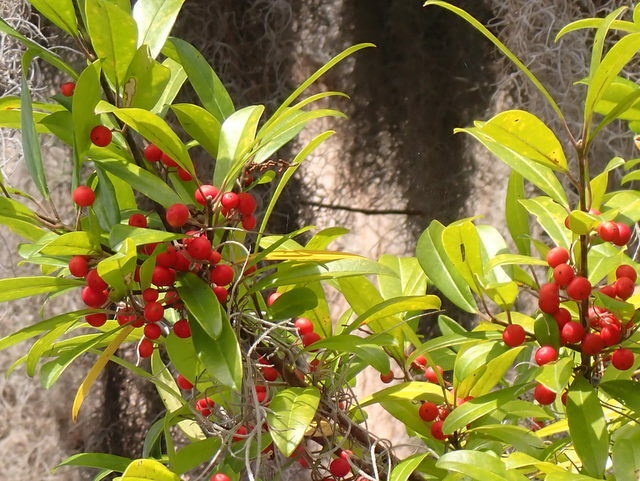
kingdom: Plantae
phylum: Tracheophyta
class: Magnoliopsida
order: Aquifoliales
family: Aquifoliaceae
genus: Ilex
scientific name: Ilex cassine
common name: Dahoon
